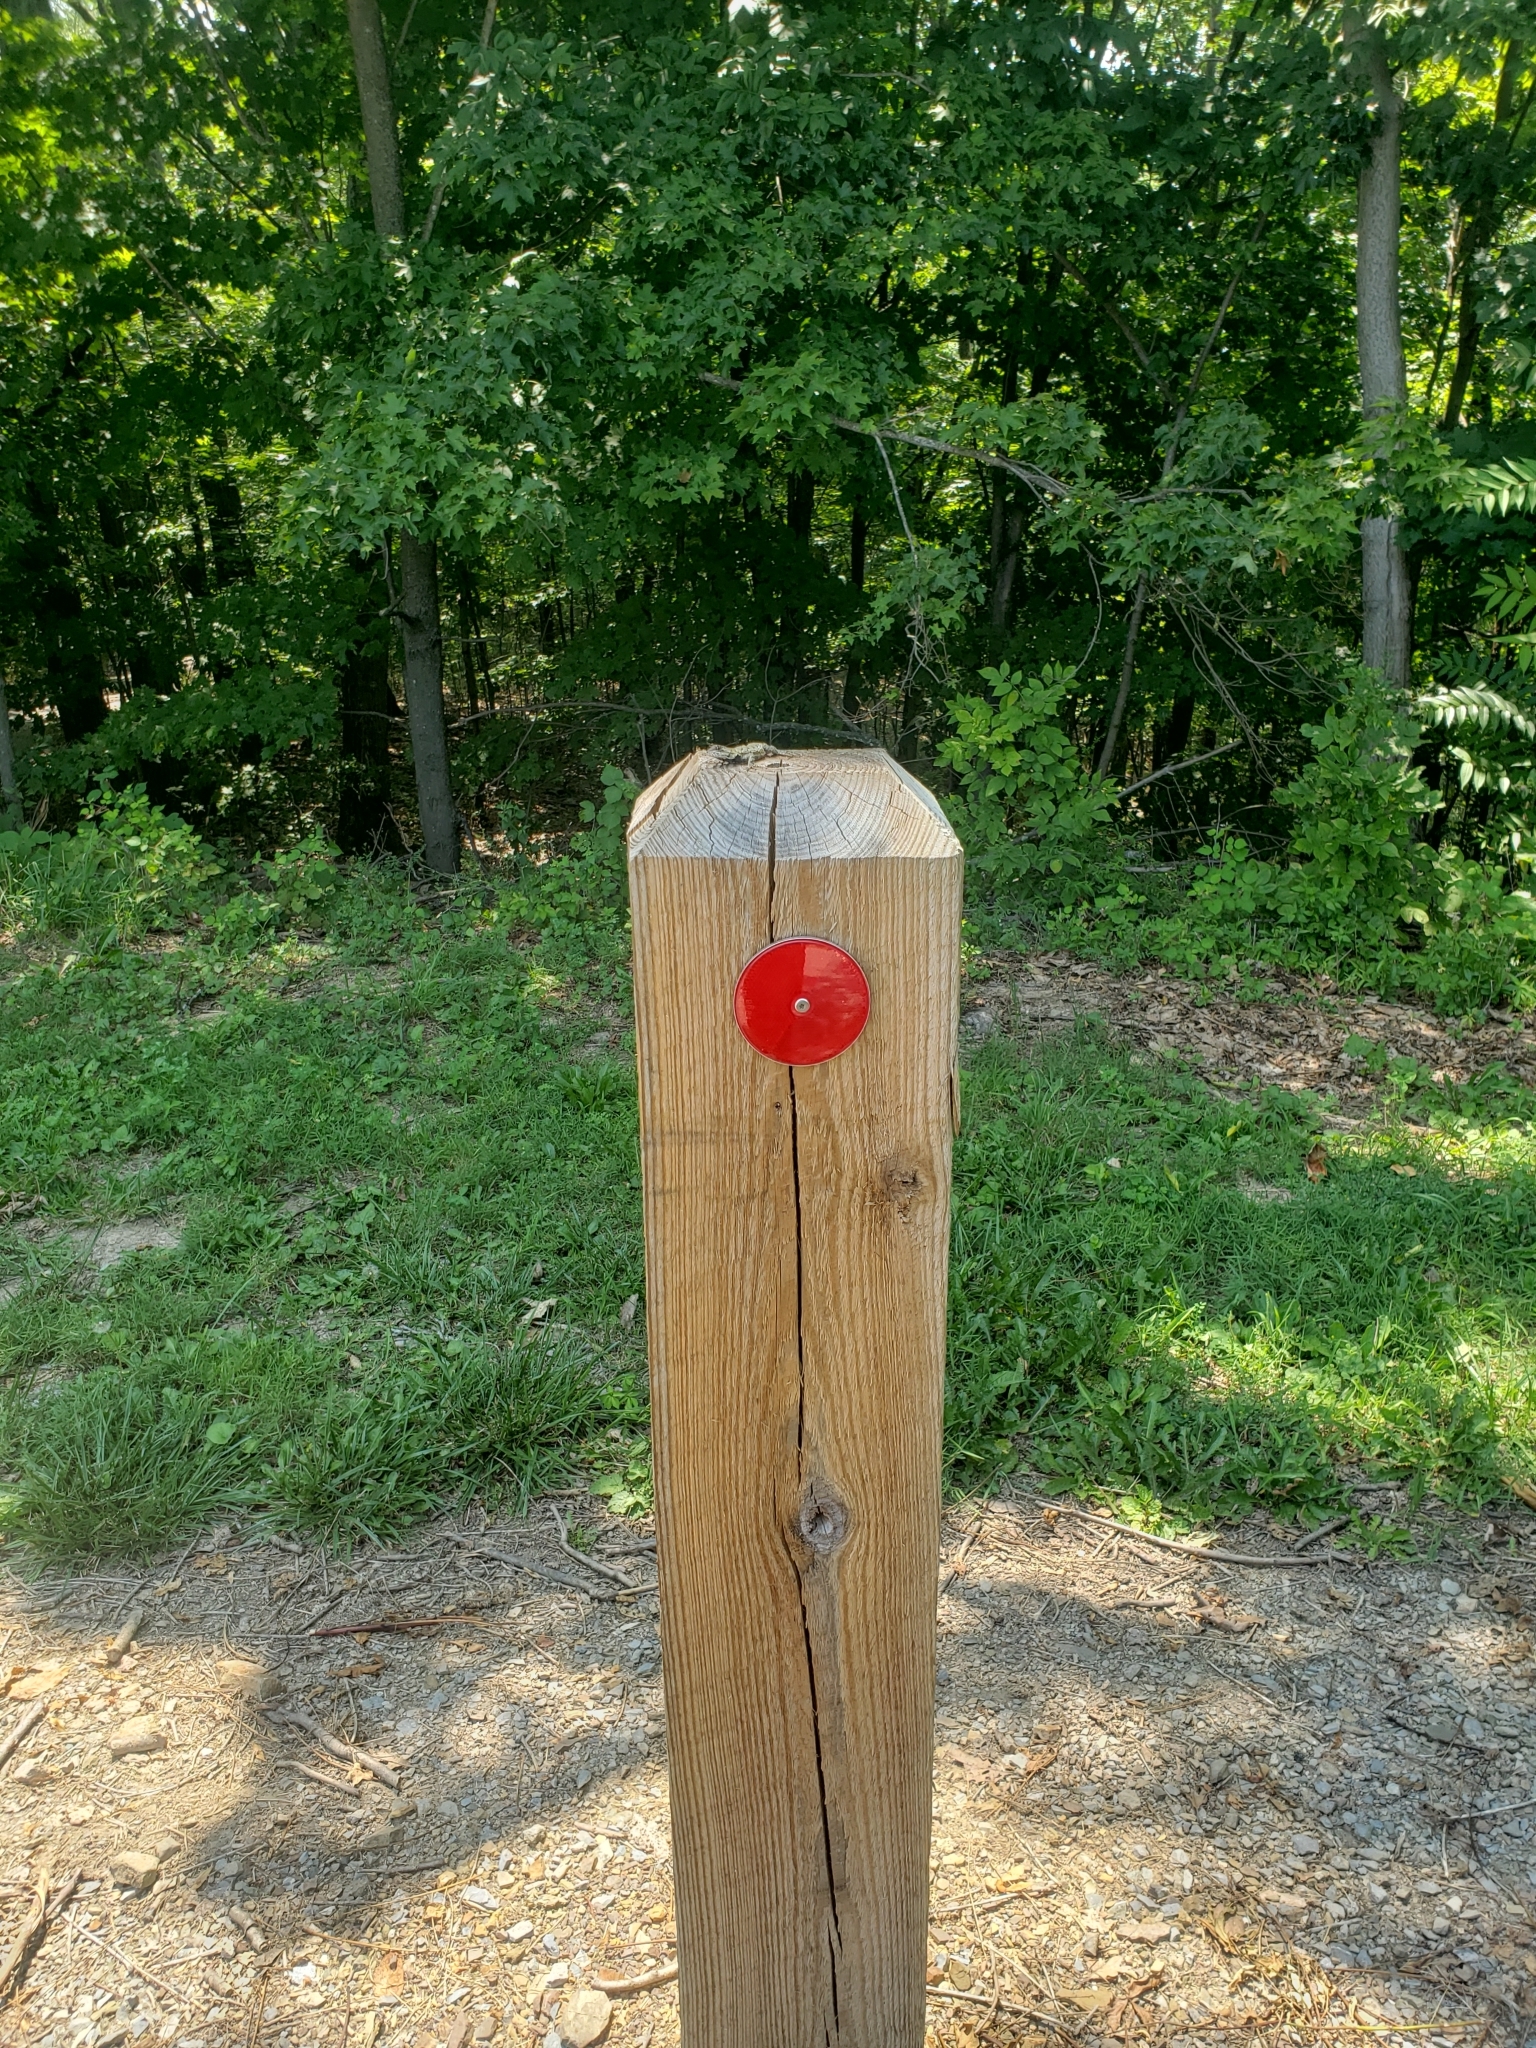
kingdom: Animalia
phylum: Chordata
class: Squamata
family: Phrynosomatidae
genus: Sceloporus
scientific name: Sceloporus undulatus
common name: Eastern fence lizard
